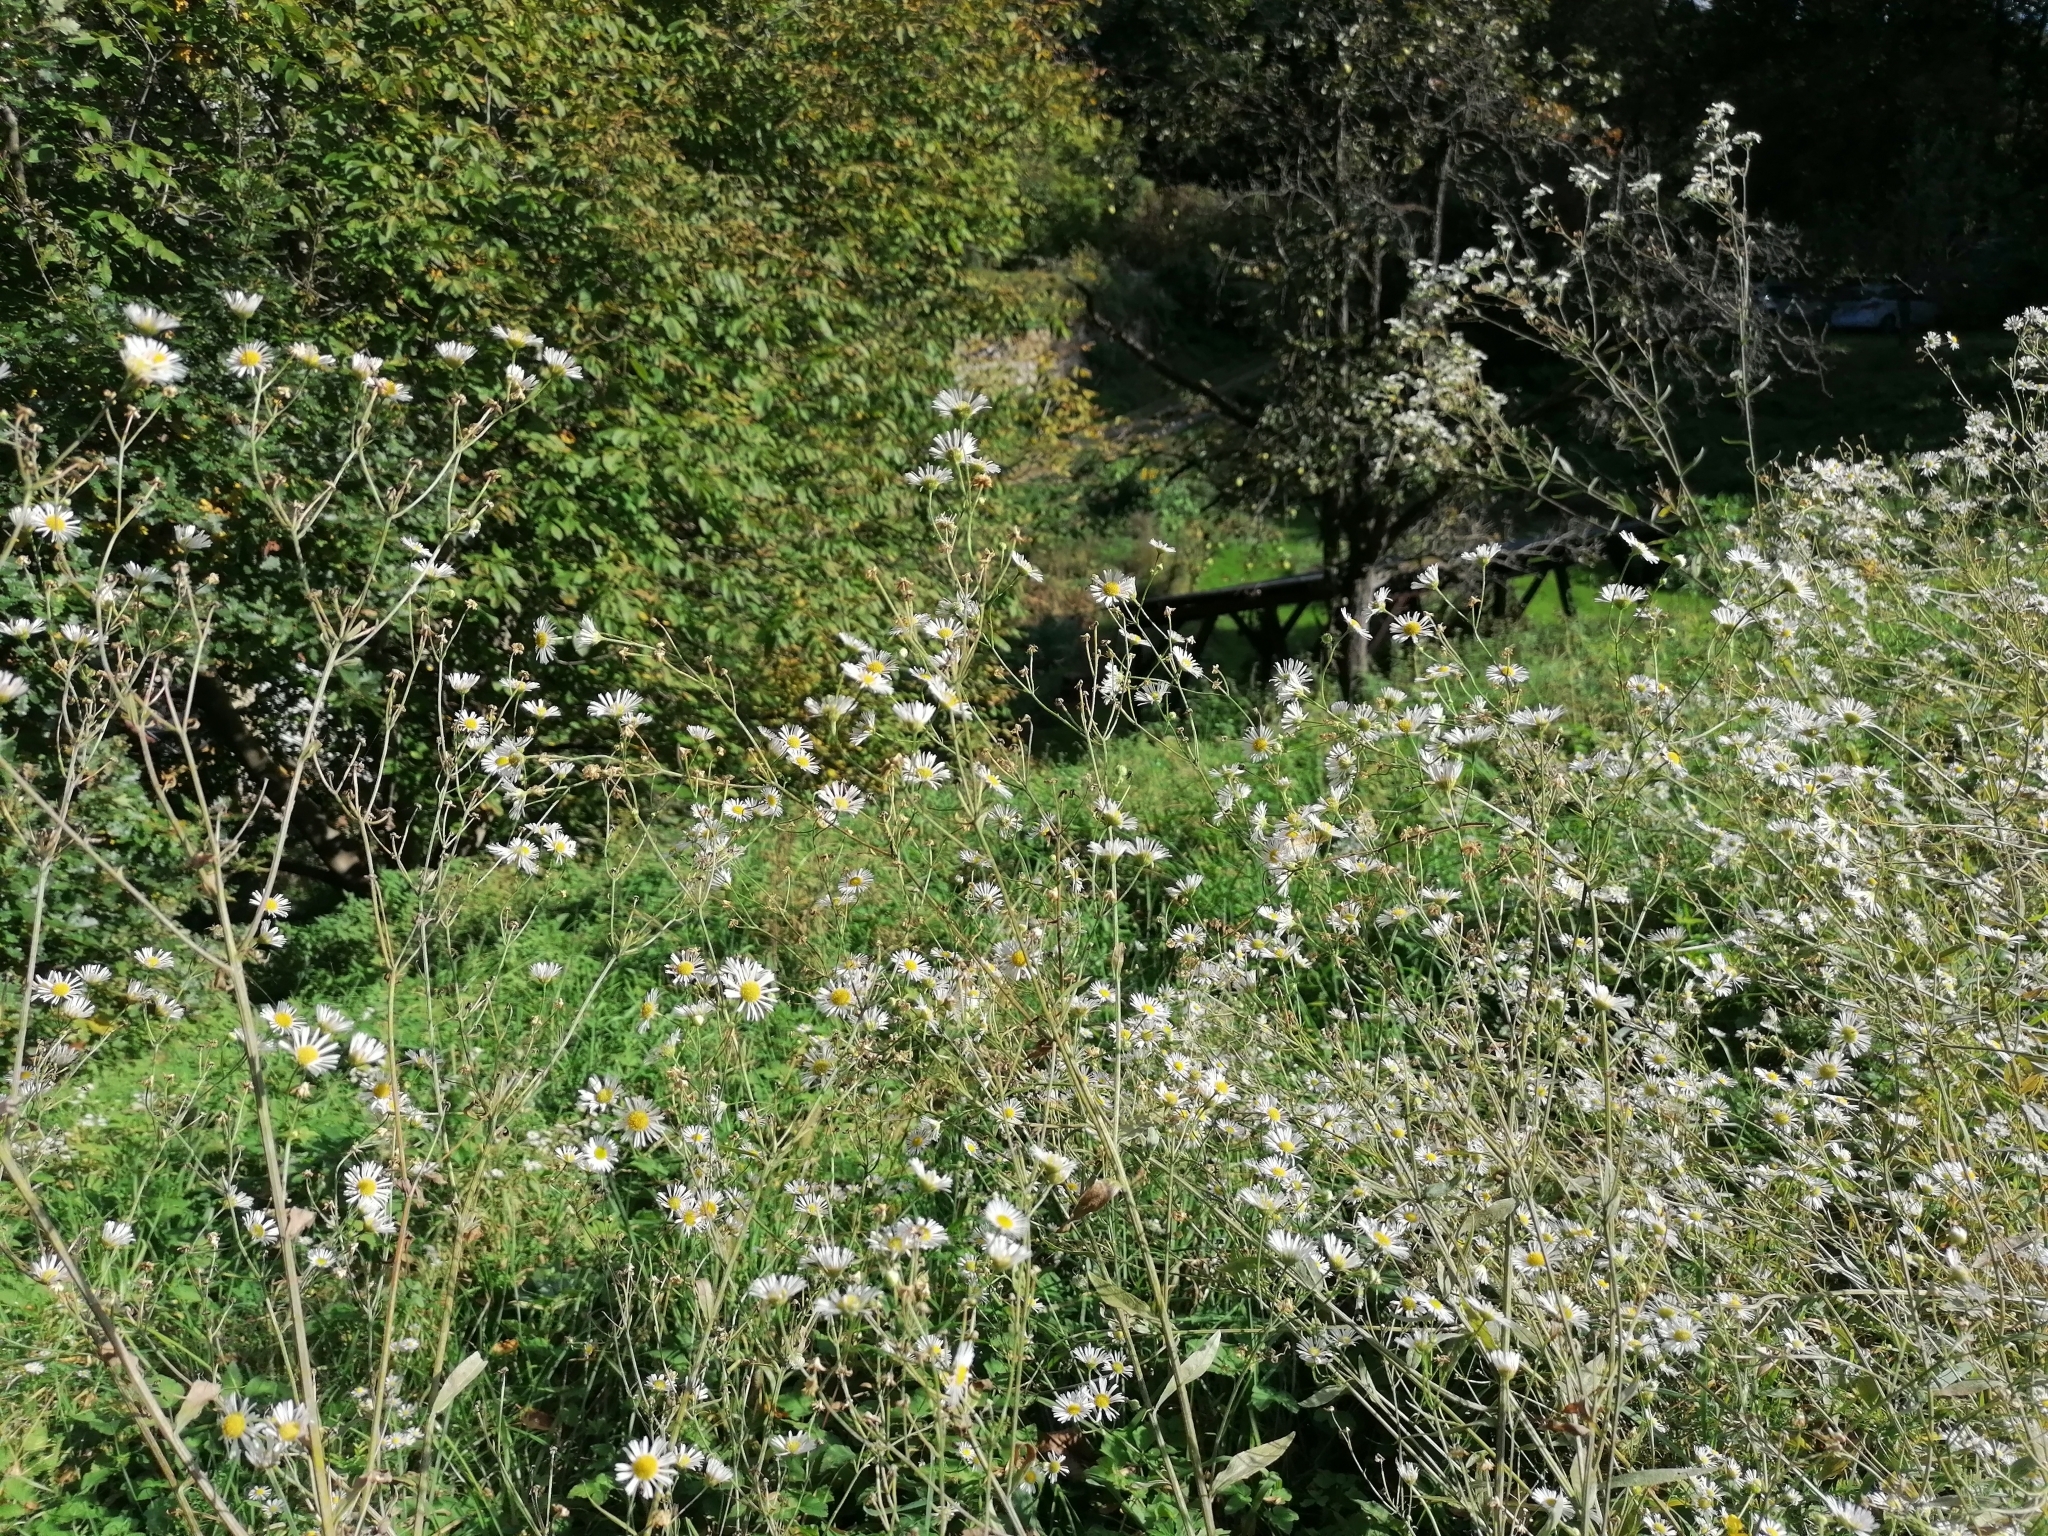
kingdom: Plantae
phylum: Tracheophyta
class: Magnoliopsida
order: Asterales
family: Asteraceae
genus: Erigeron
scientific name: Erigeron annuus
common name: Tall fleabane
